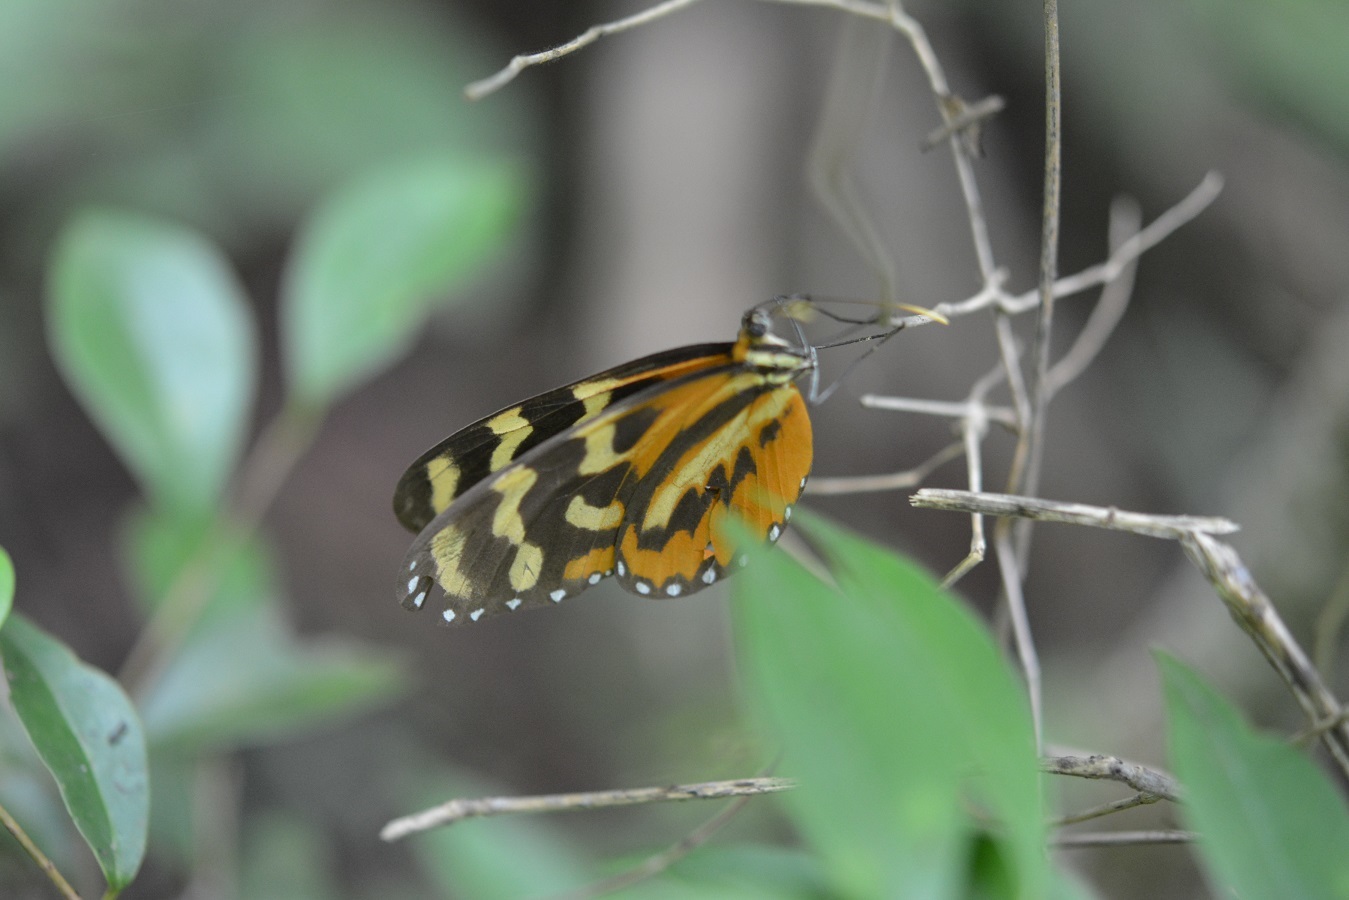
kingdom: Animalia
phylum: Arthropoda
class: Insecta
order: Lepidoptera
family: Nymphalidae
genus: Mechanitis
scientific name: Mechanitis polymnia
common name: Disturbed tigerwing
